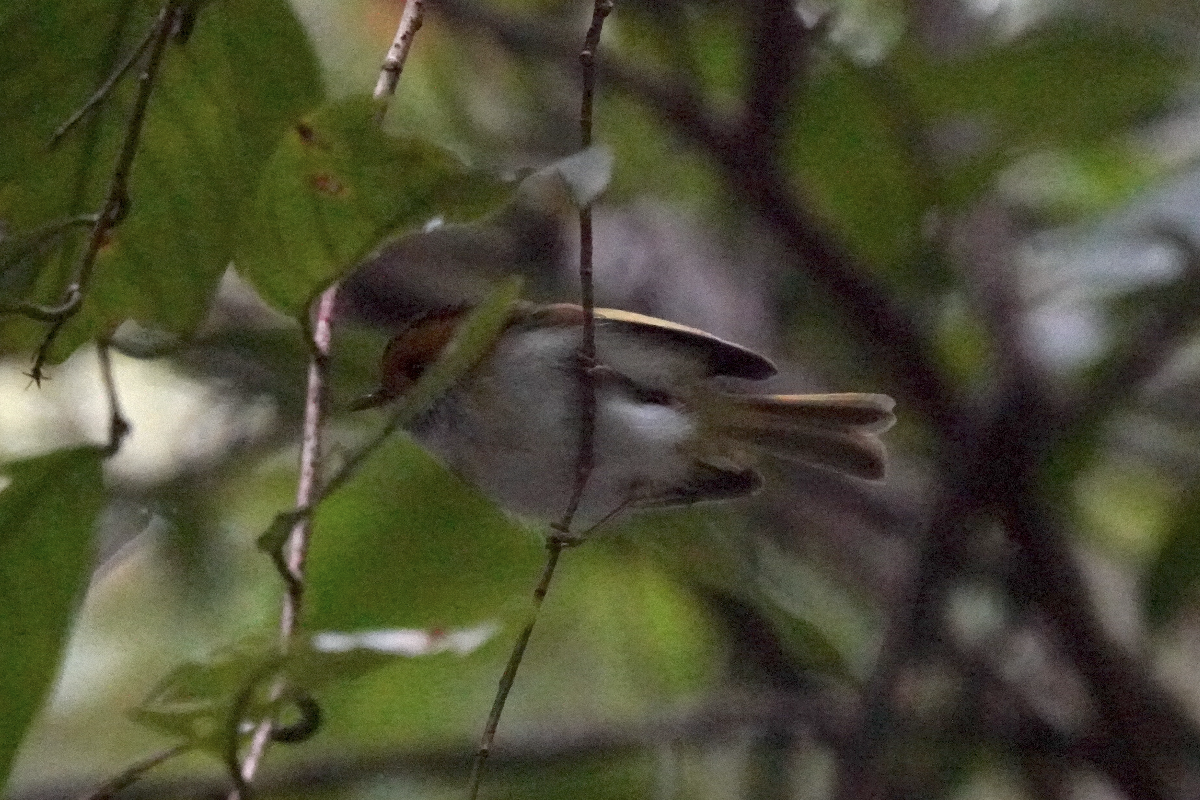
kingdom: Animalia
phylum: Chordata
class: Aves
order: Passeriformes
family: Cettiidae
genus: Abroscopus
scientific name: Abroscopus albogularis
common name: Rufous-faced warbler
